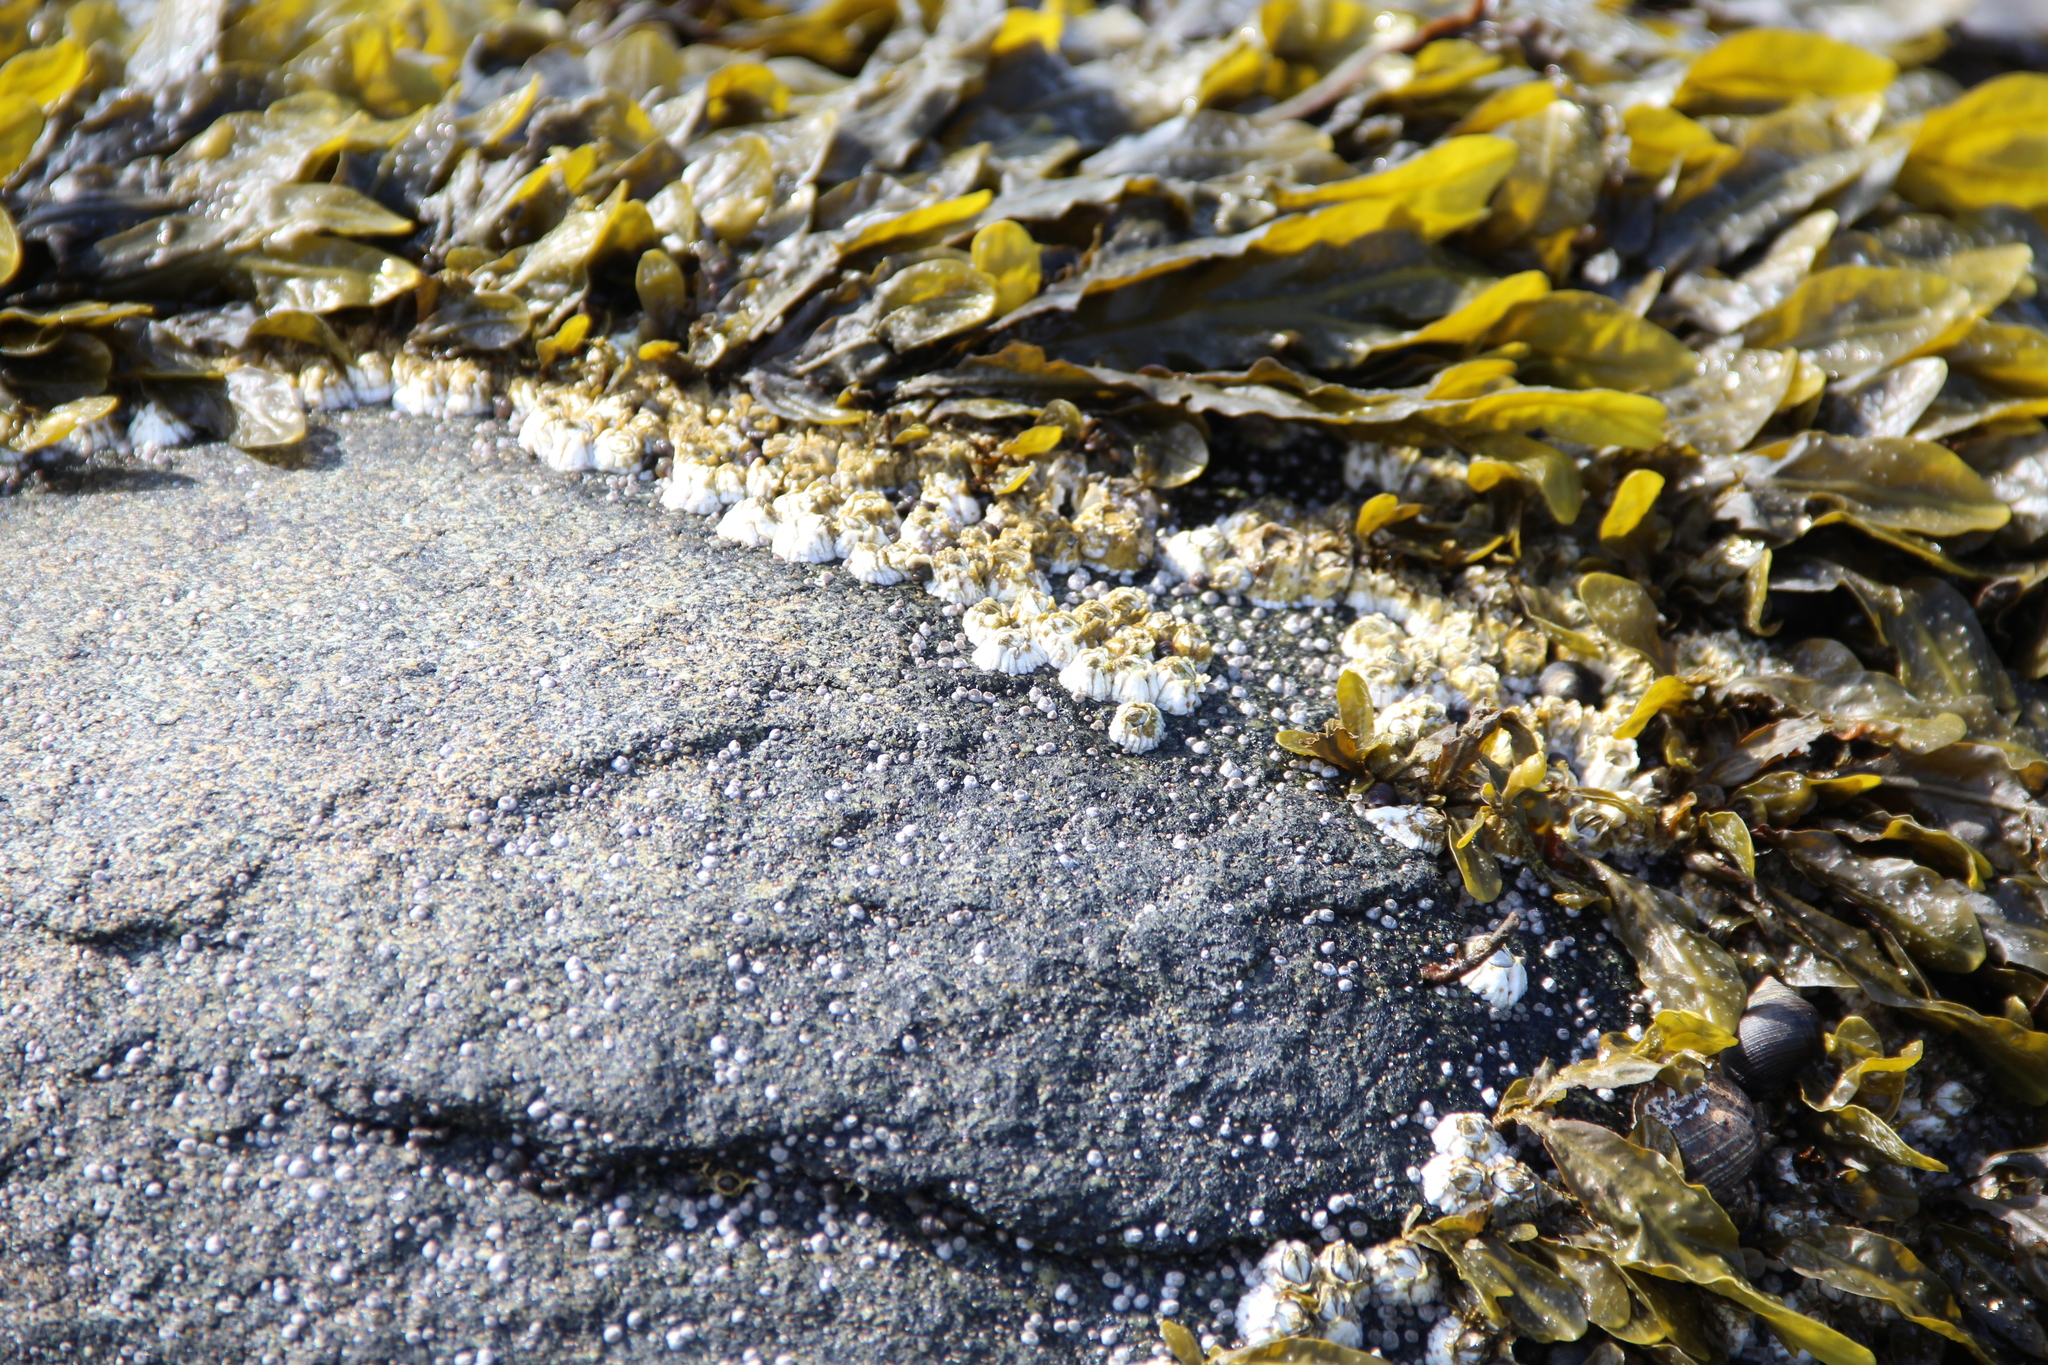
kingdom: Animalia
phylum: Arthropoda
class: Maxillopoda
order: Sessilia
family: Archaeobalanidae
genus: Semibalanus
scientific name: Semibalanus balanoides
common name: Acorn barnacle
